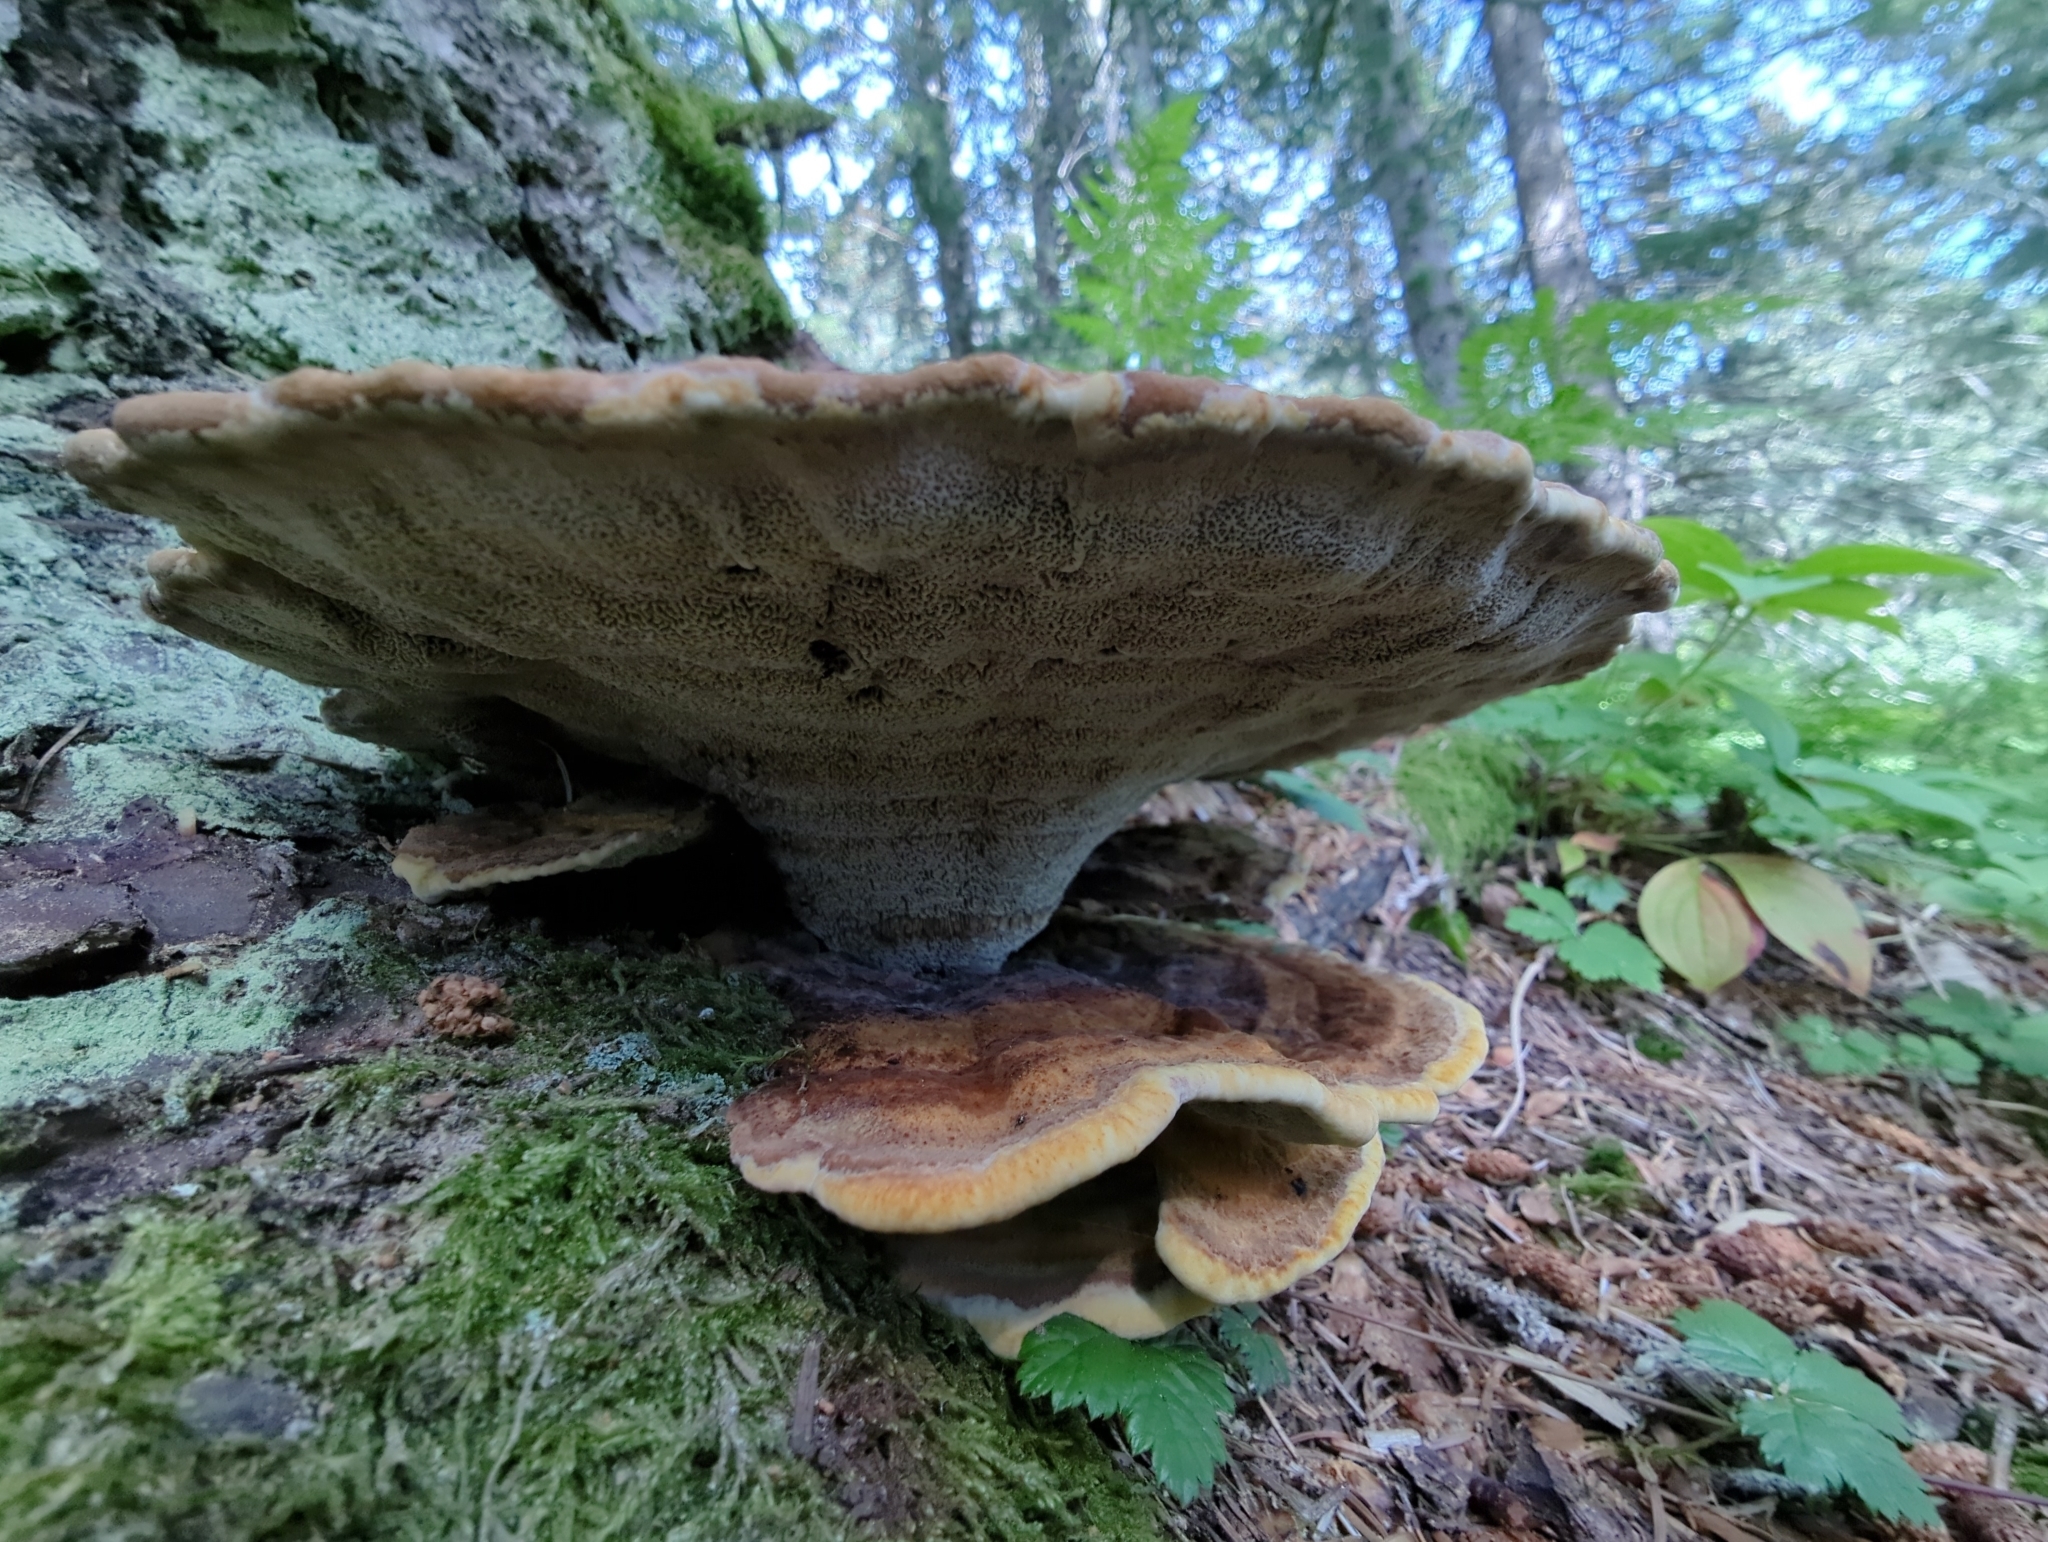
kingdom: Fungi
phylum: Basidiomycota
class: Agaricomycetes
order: Polyporales
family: Laetiporaceae
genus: Phaeolus
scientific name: Phaeolus schweinitzii
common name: Dyer's mazegill
